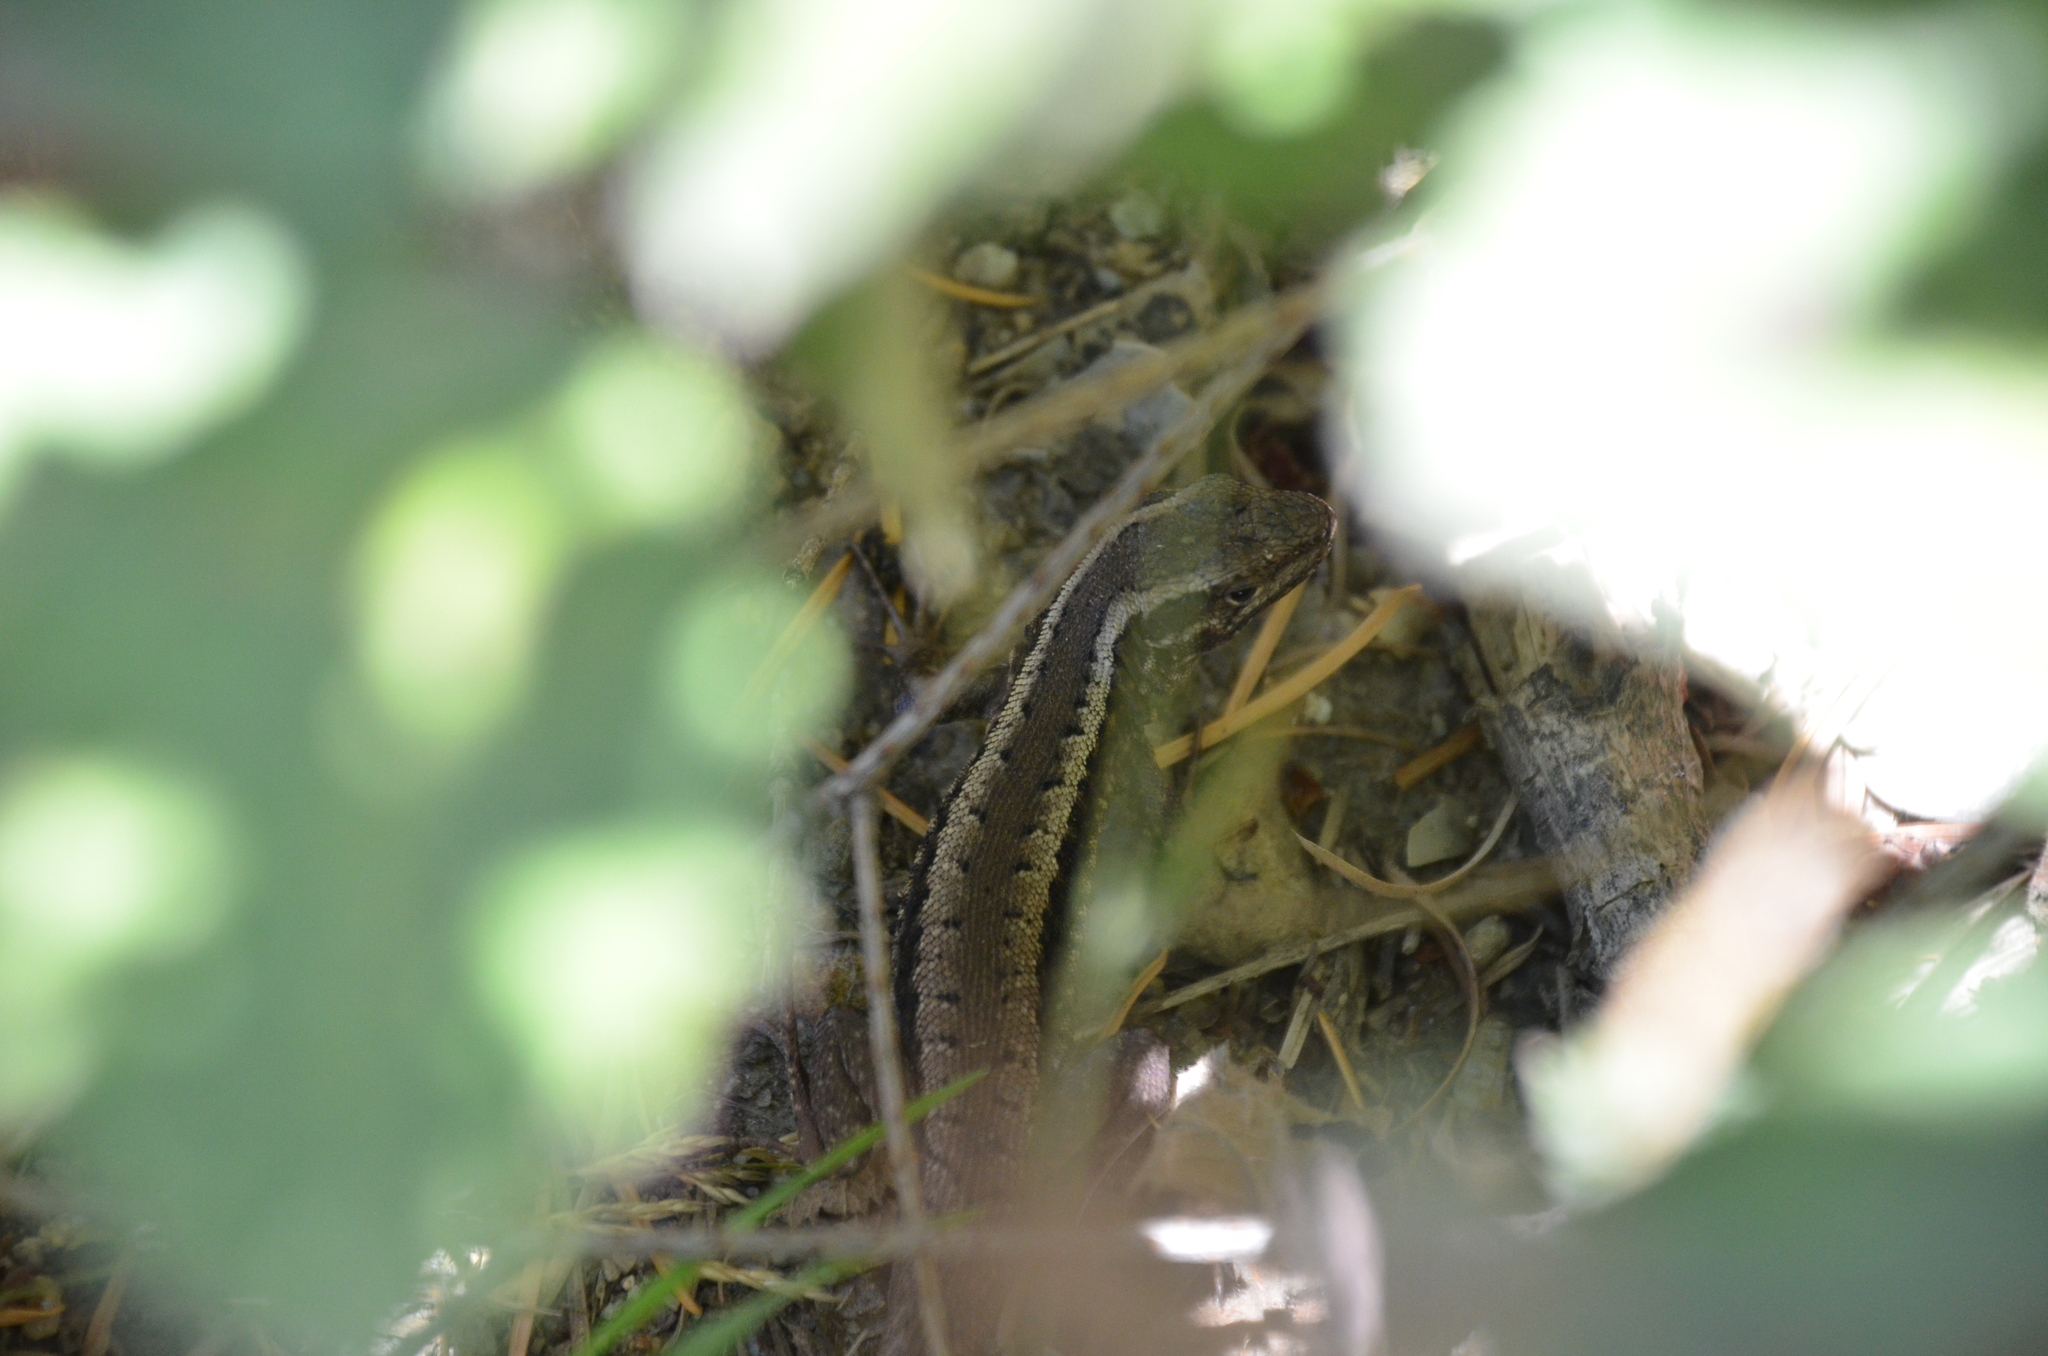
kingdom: Animalia
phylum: Chordata
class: Squamata
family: Liolaemidae
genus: Liolaemus
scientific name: Liolaemus pictus
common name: Painted tree iguana
